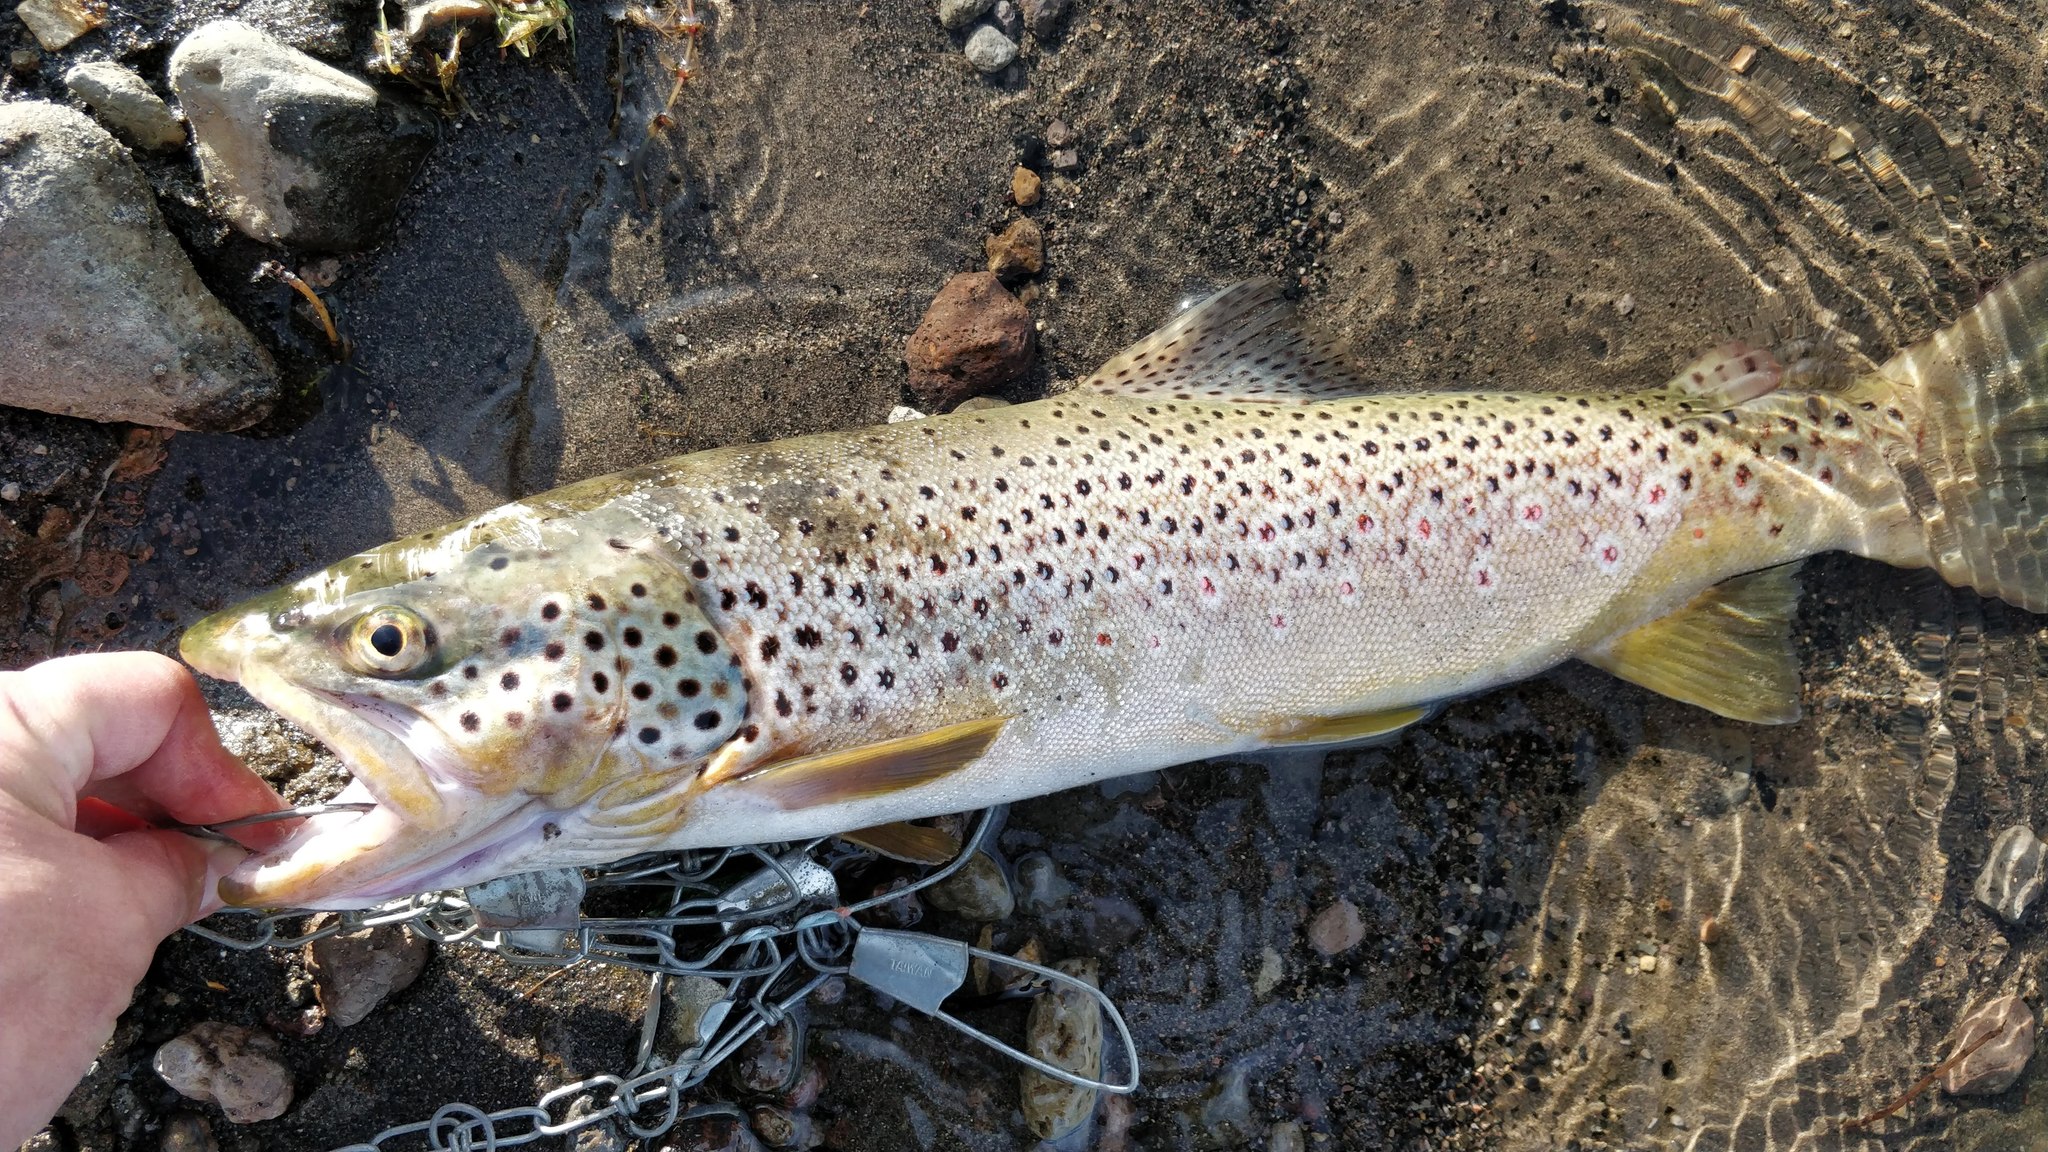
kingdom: Animalia
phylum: Chordata
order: Salmoniformes
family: Salmonidae
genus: Salmo
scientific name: Salmo trutta
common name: Brown trout
